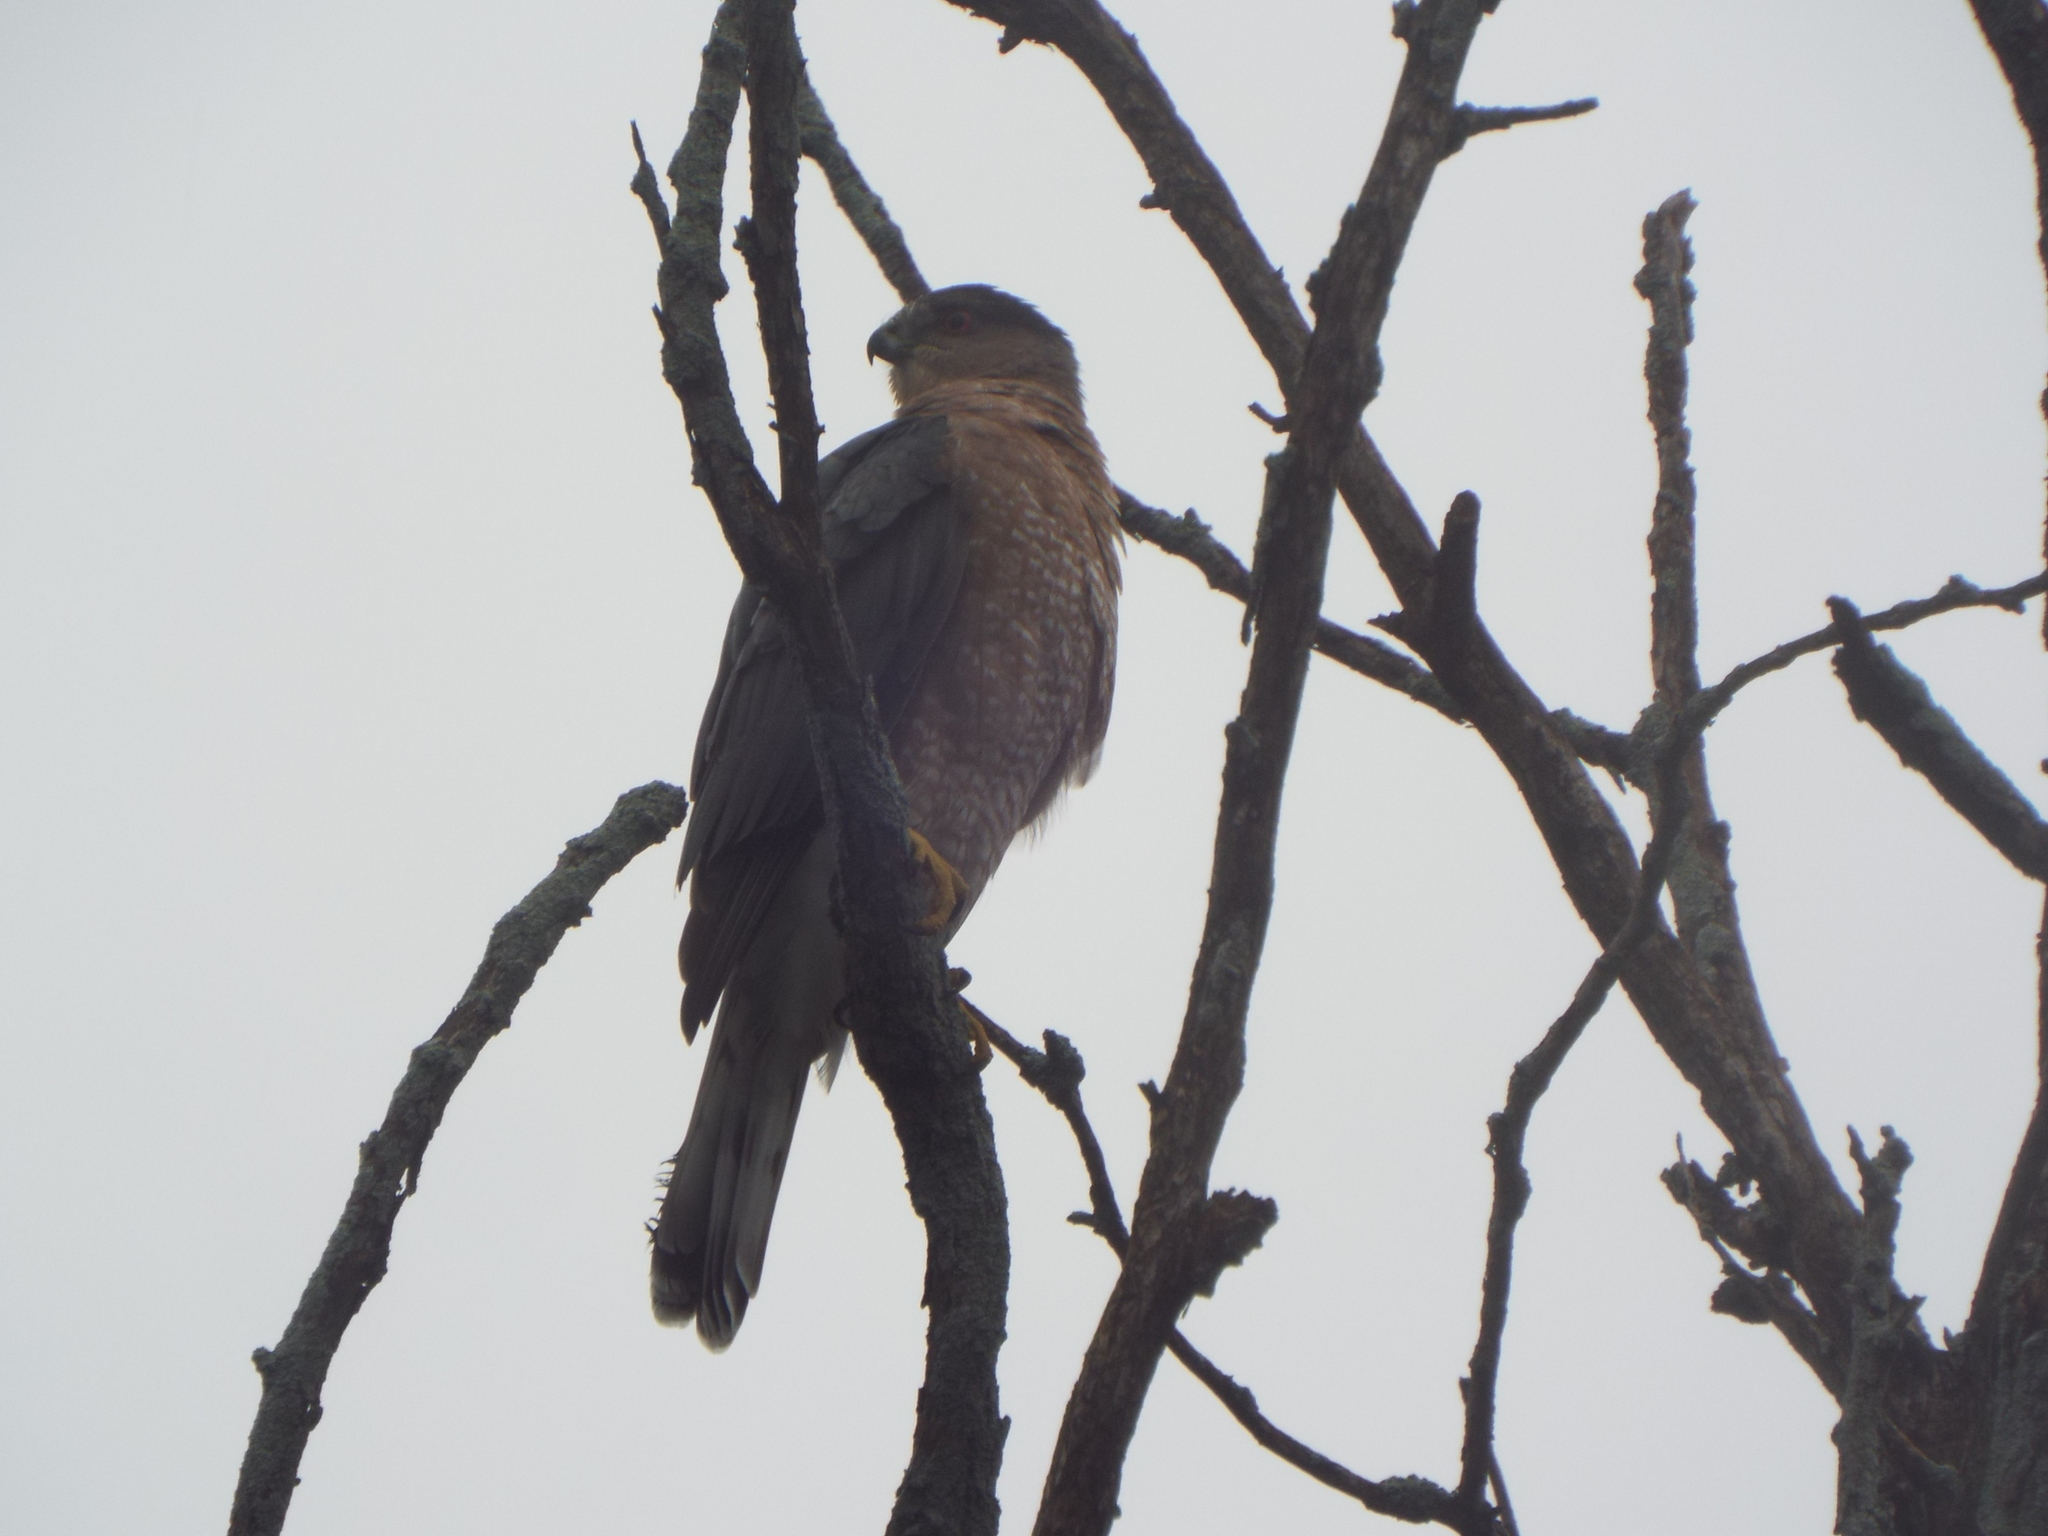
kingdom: Animalia
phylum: Chordata
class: Aves
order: Accipitriformes
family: Accipitridae
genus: Accipiter
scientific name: Accipiter cooperii
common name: Cooper's hawk
